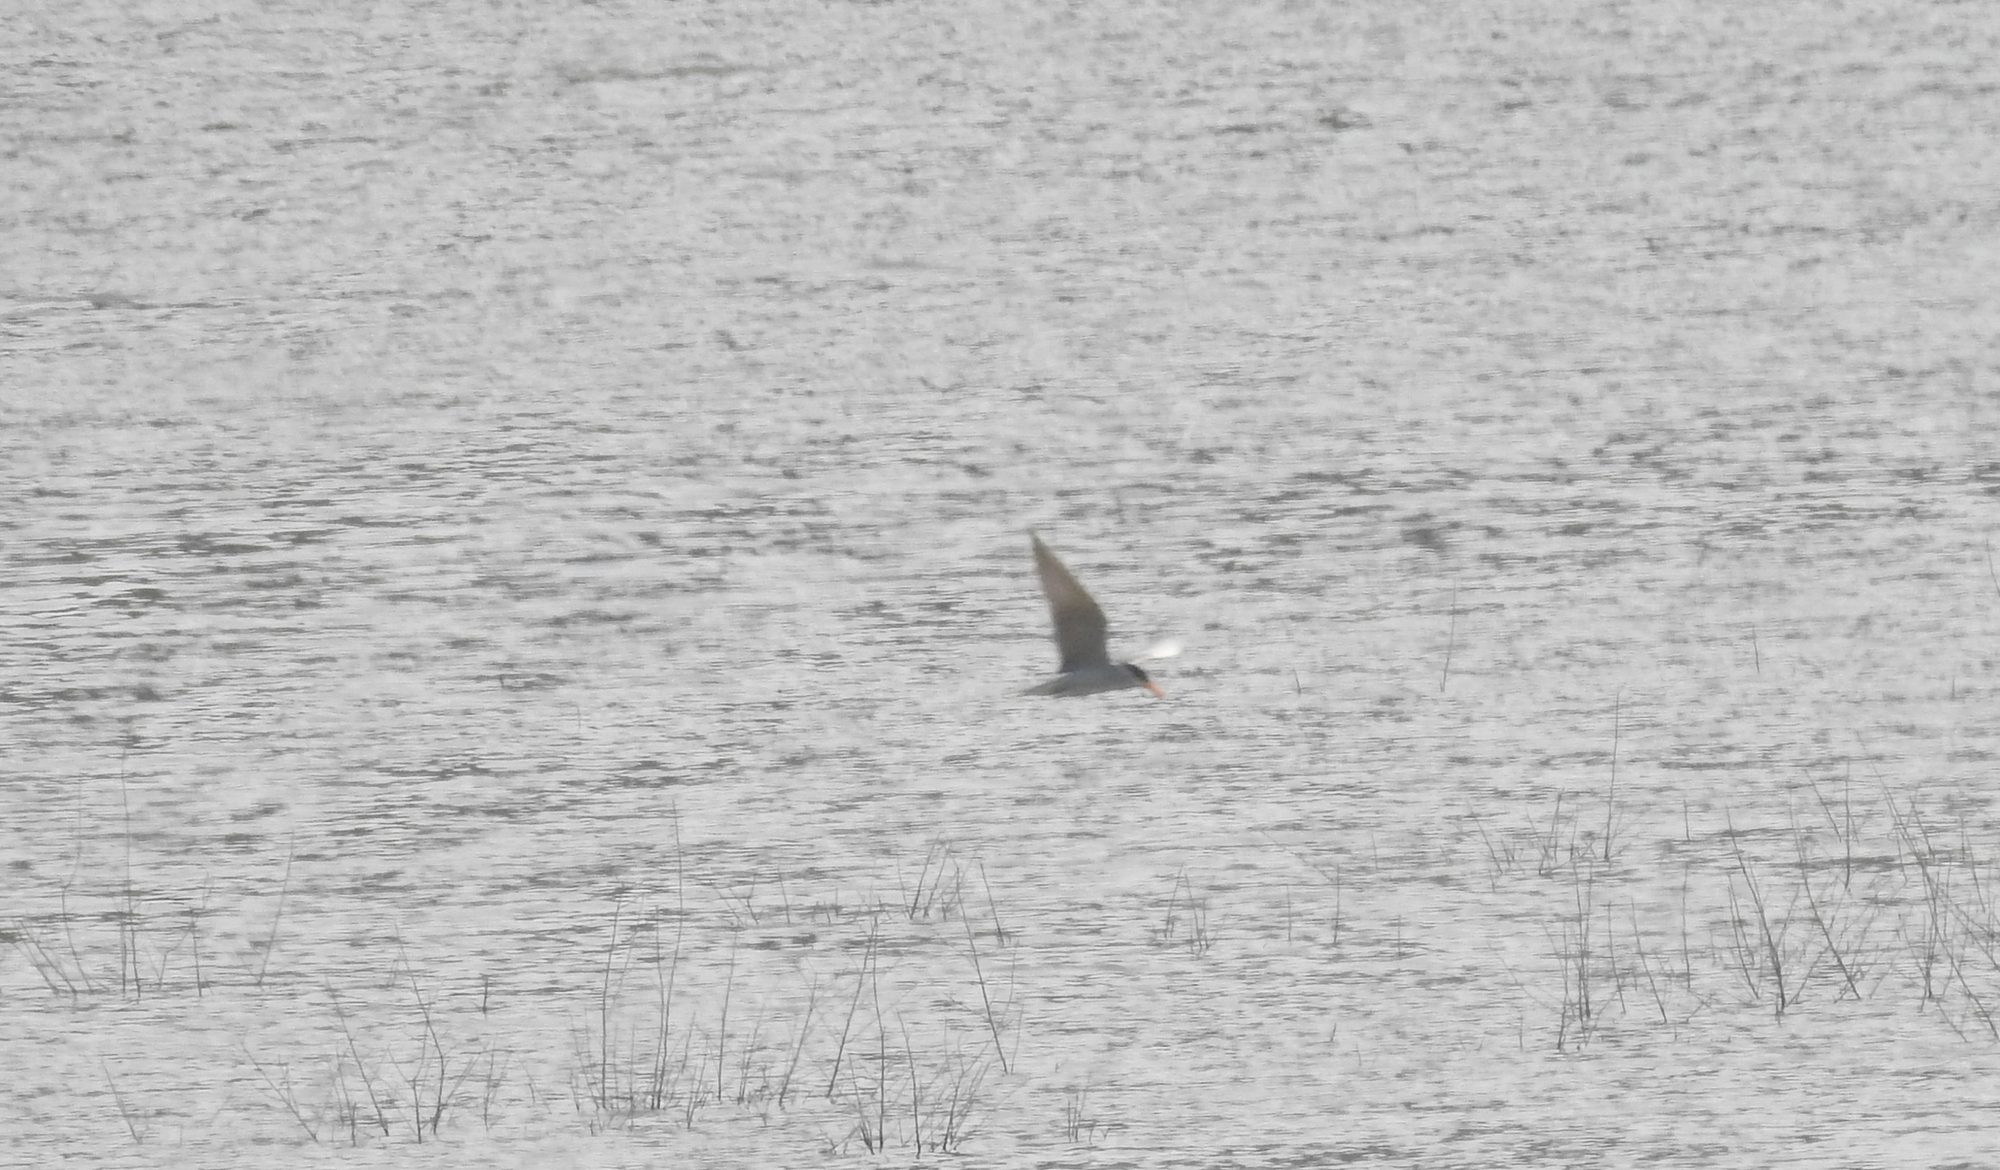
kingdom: Animalia
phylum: Chordata
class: Aves
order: Charadriiformes
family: Laridae
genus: Sterna
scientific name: Sterna aurantia
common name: River tern
